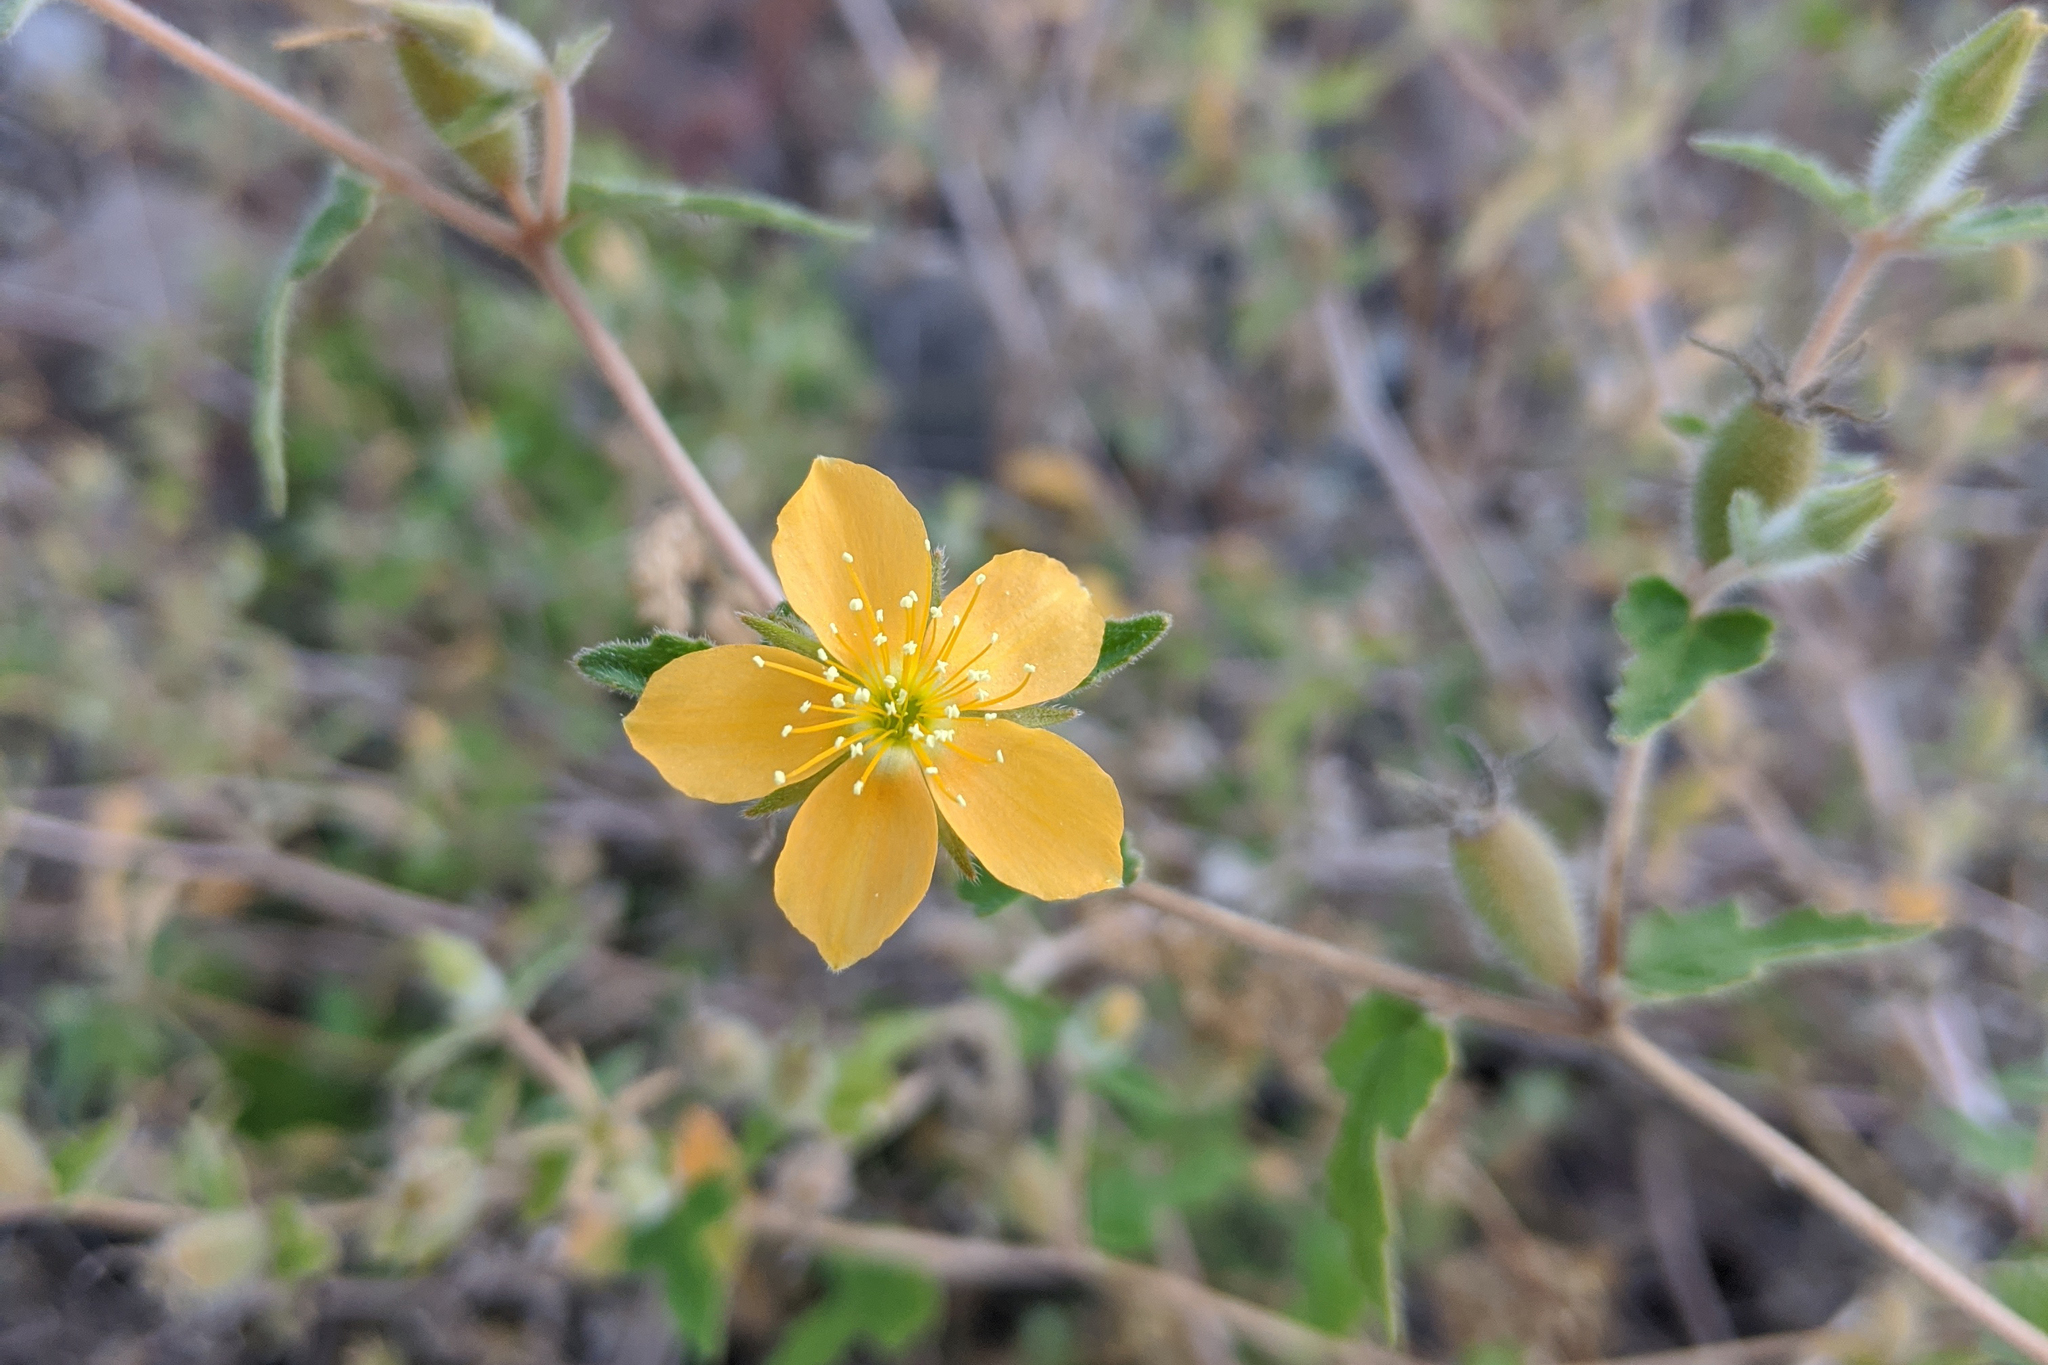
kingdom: Plantae
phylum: Tracheophyta
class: Magnoliopsida
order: Cornales
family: Loasaceae
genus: Mentzelia
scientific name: Mentzelia adhaerens
